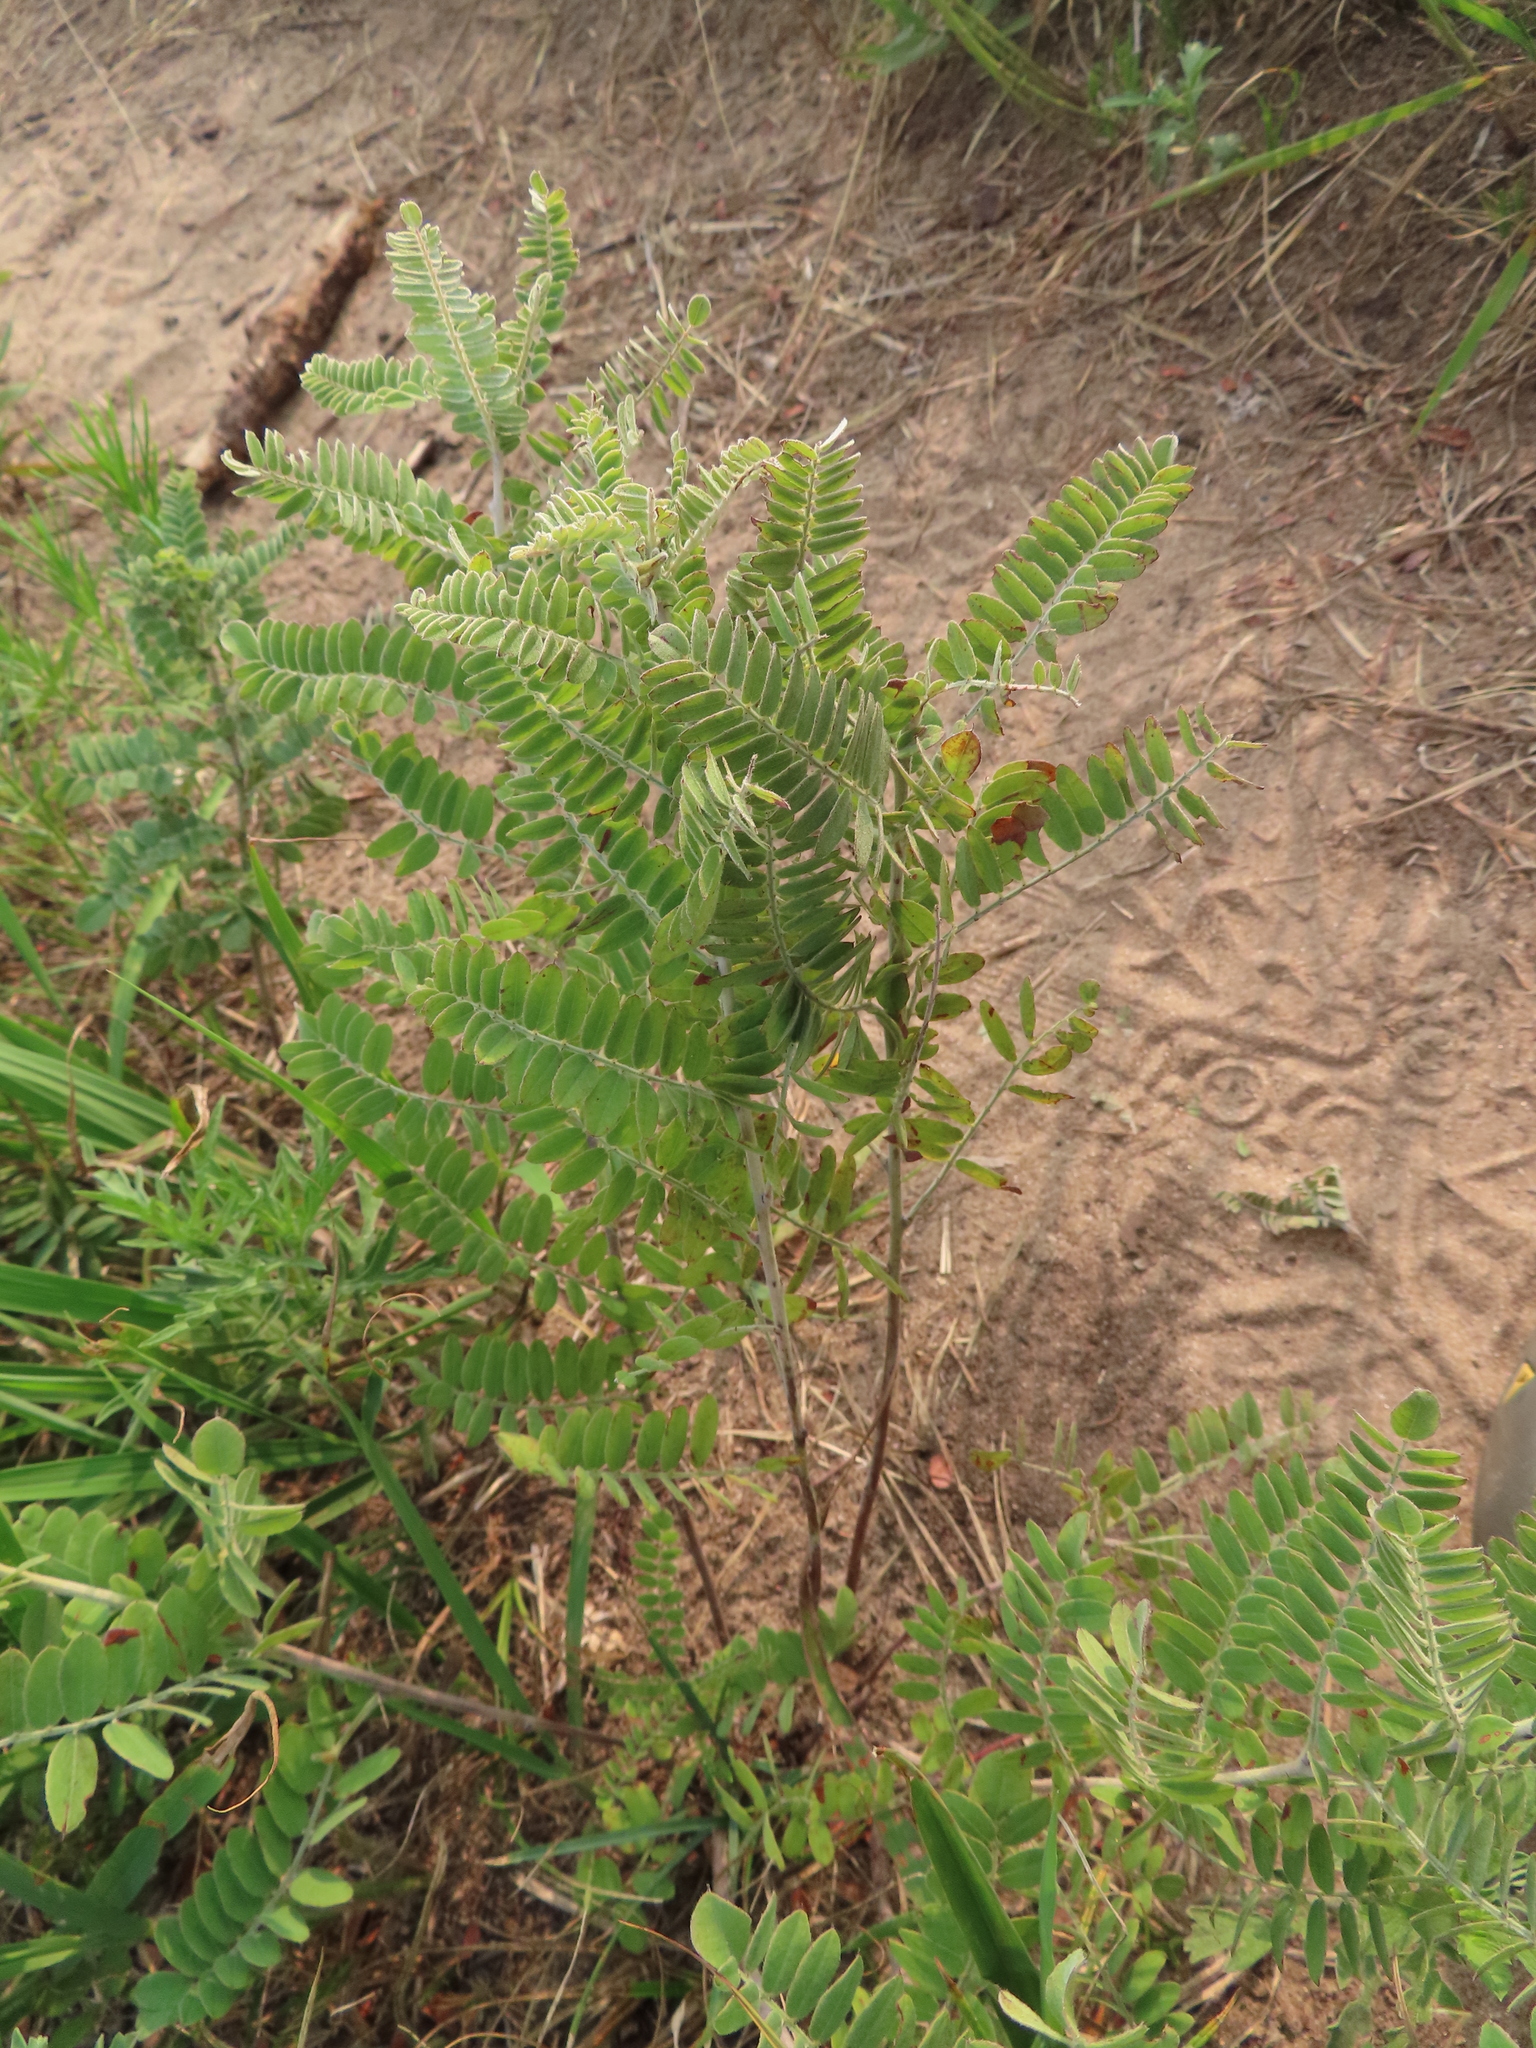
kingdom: Plantae
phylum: Tracheophyta
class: Magnoliopsida
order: Fabales
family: Fabaceae
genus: Amorpha
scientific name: Amorpha canescens
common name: Leadplant
